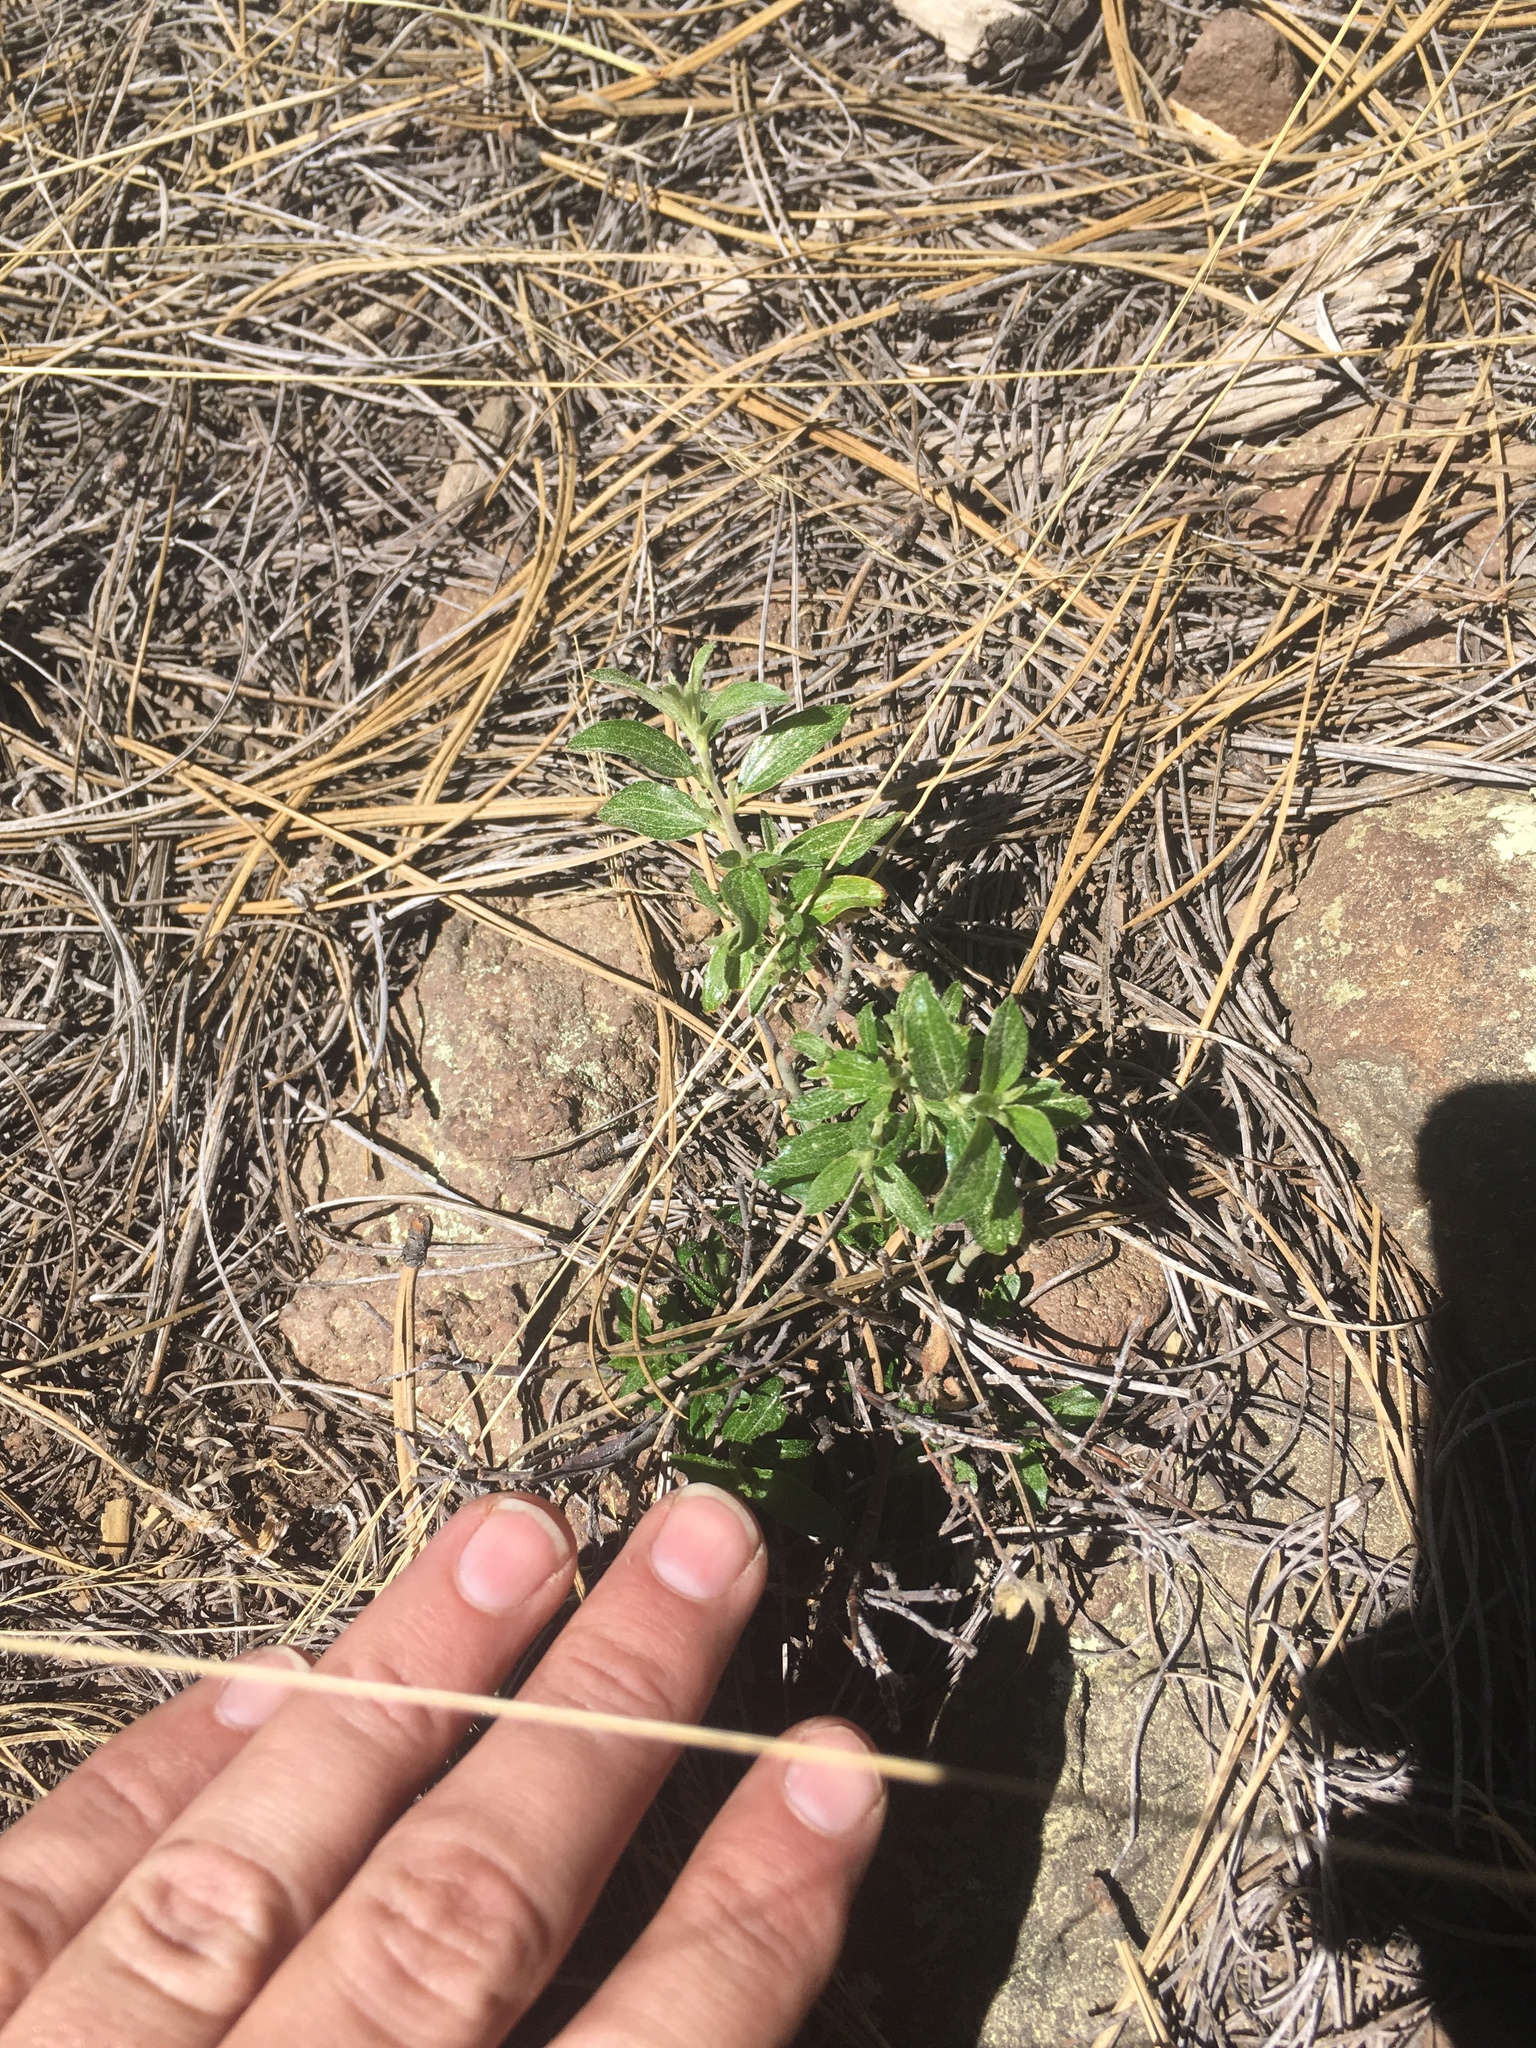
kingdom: Plantae
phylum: Tracheophyta
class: Magnoliopsida
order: Rosales
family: Rhamnaceae
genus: Ceanothus
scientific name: Ceanothus fendleri
